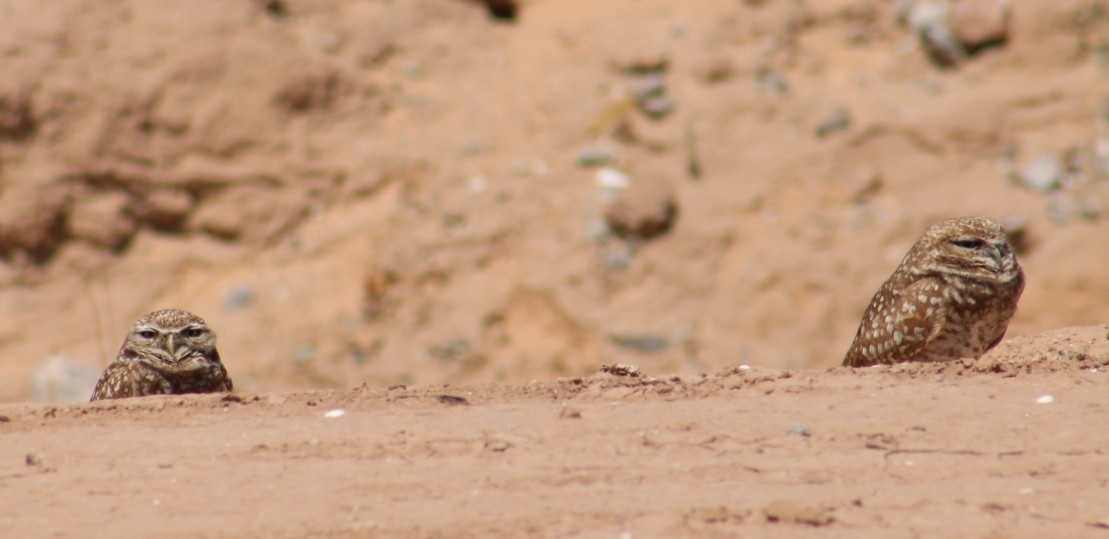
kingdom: Animalia
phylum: Chordata
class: Aves
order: Strigiformes
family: Strigidae
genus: Athene
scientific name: Athene cunicularia
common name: Burrowing owl
